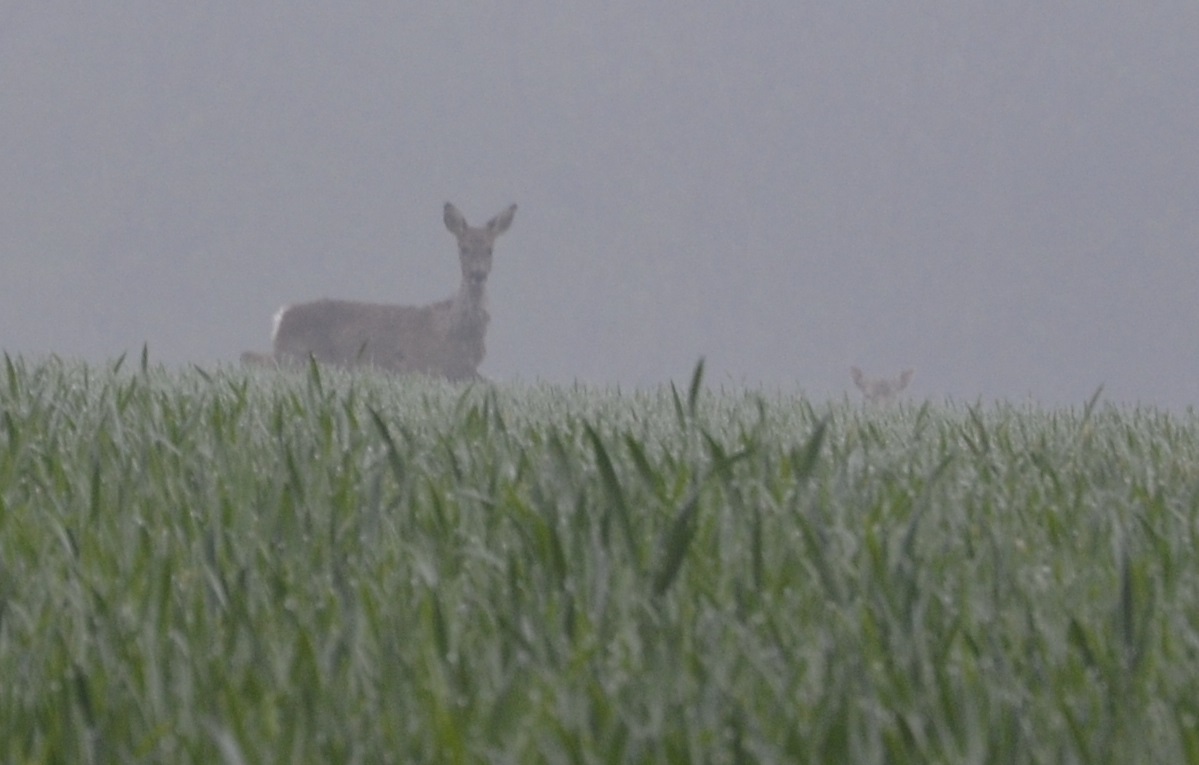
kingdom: Animalia
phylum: Chordata
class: Mammalia
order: Artiodactyla
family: Cervidae
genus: Capreolus
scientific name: Capreolus capreolus
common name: Western roe deer
